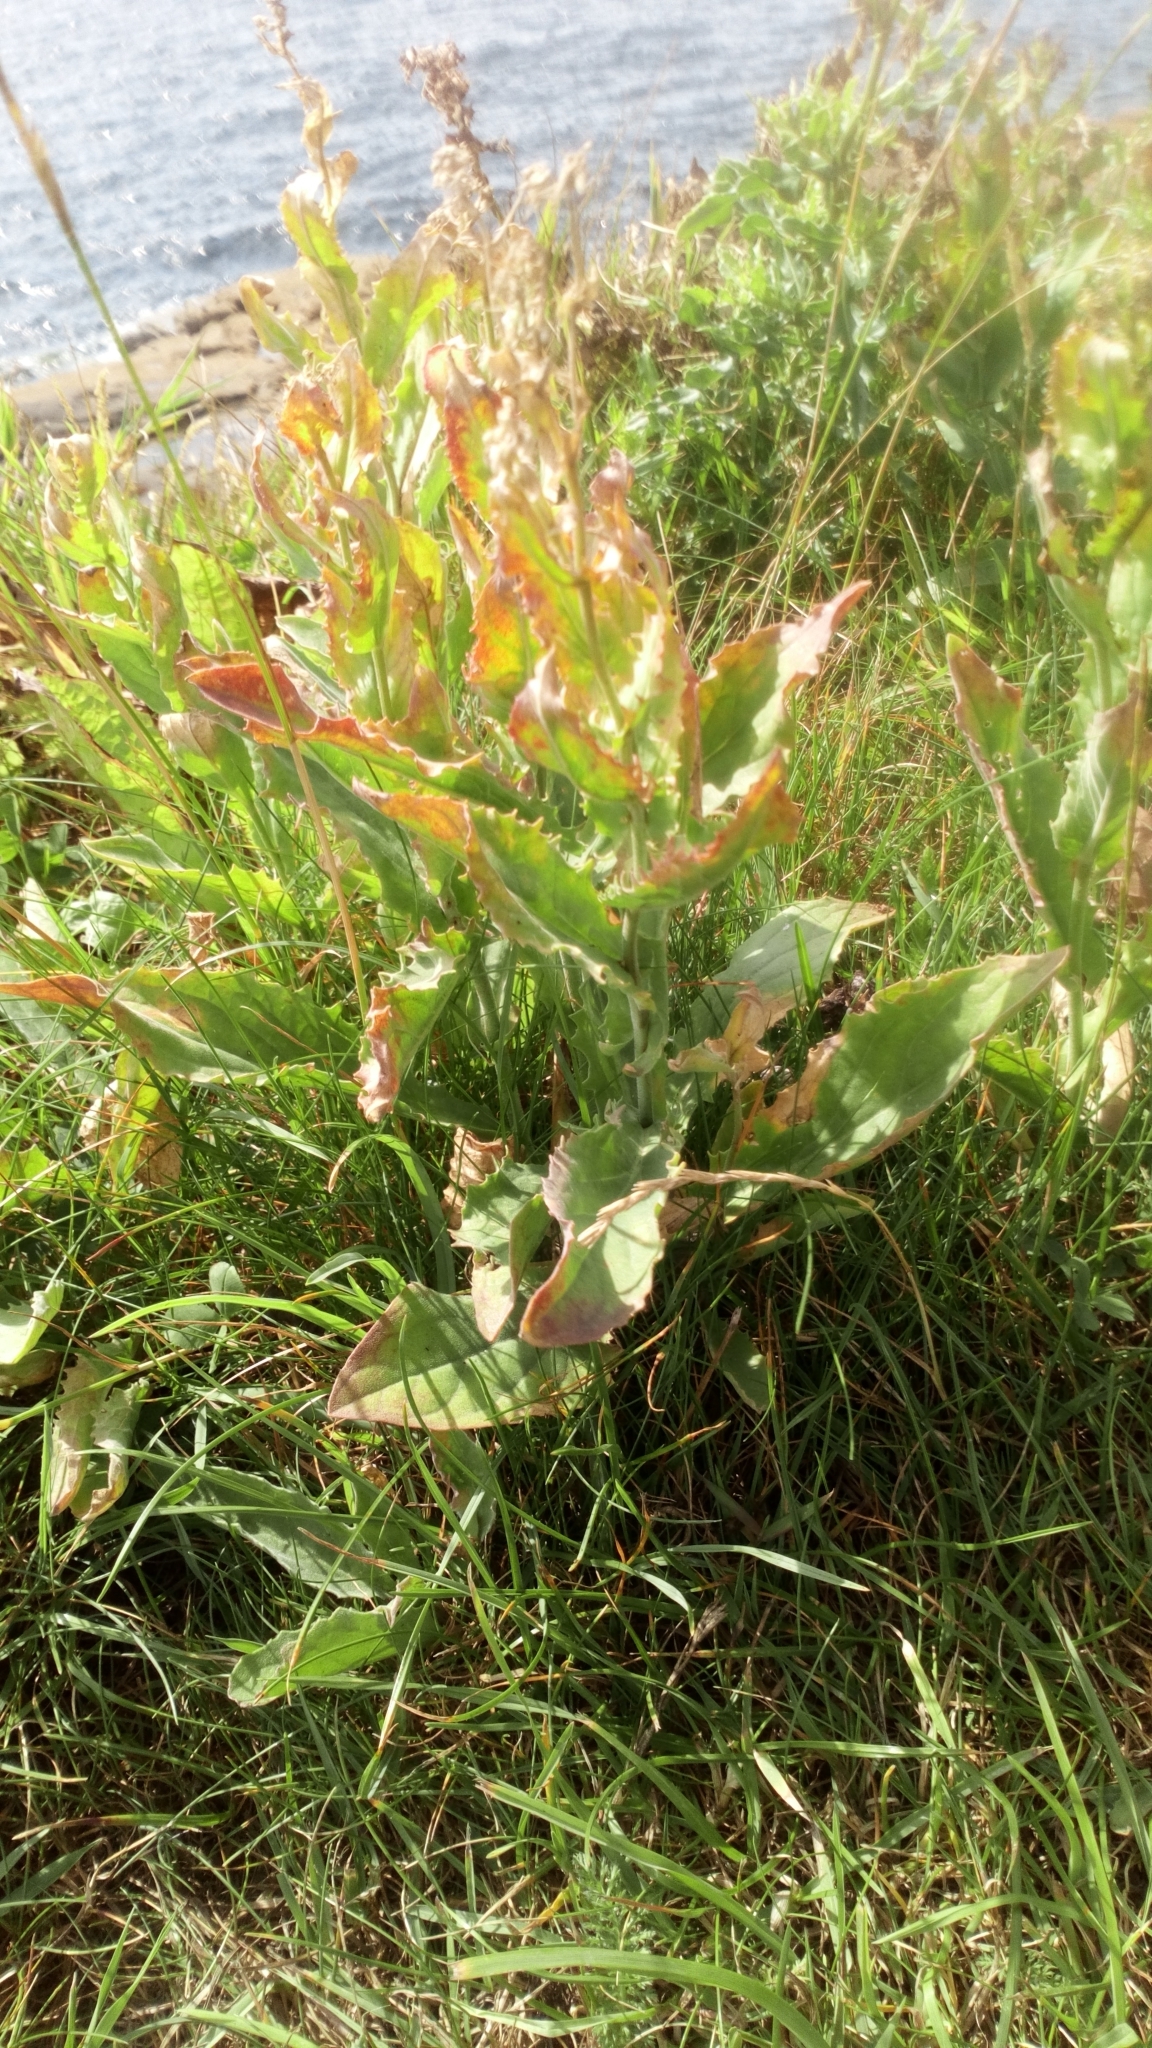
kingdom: Plantae
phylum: Tracheophyta
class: Magnoliopsida
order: Brassicales
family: Brassicaceae
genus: Lepidium
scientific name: Lepidium draba
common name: Hoary cress
